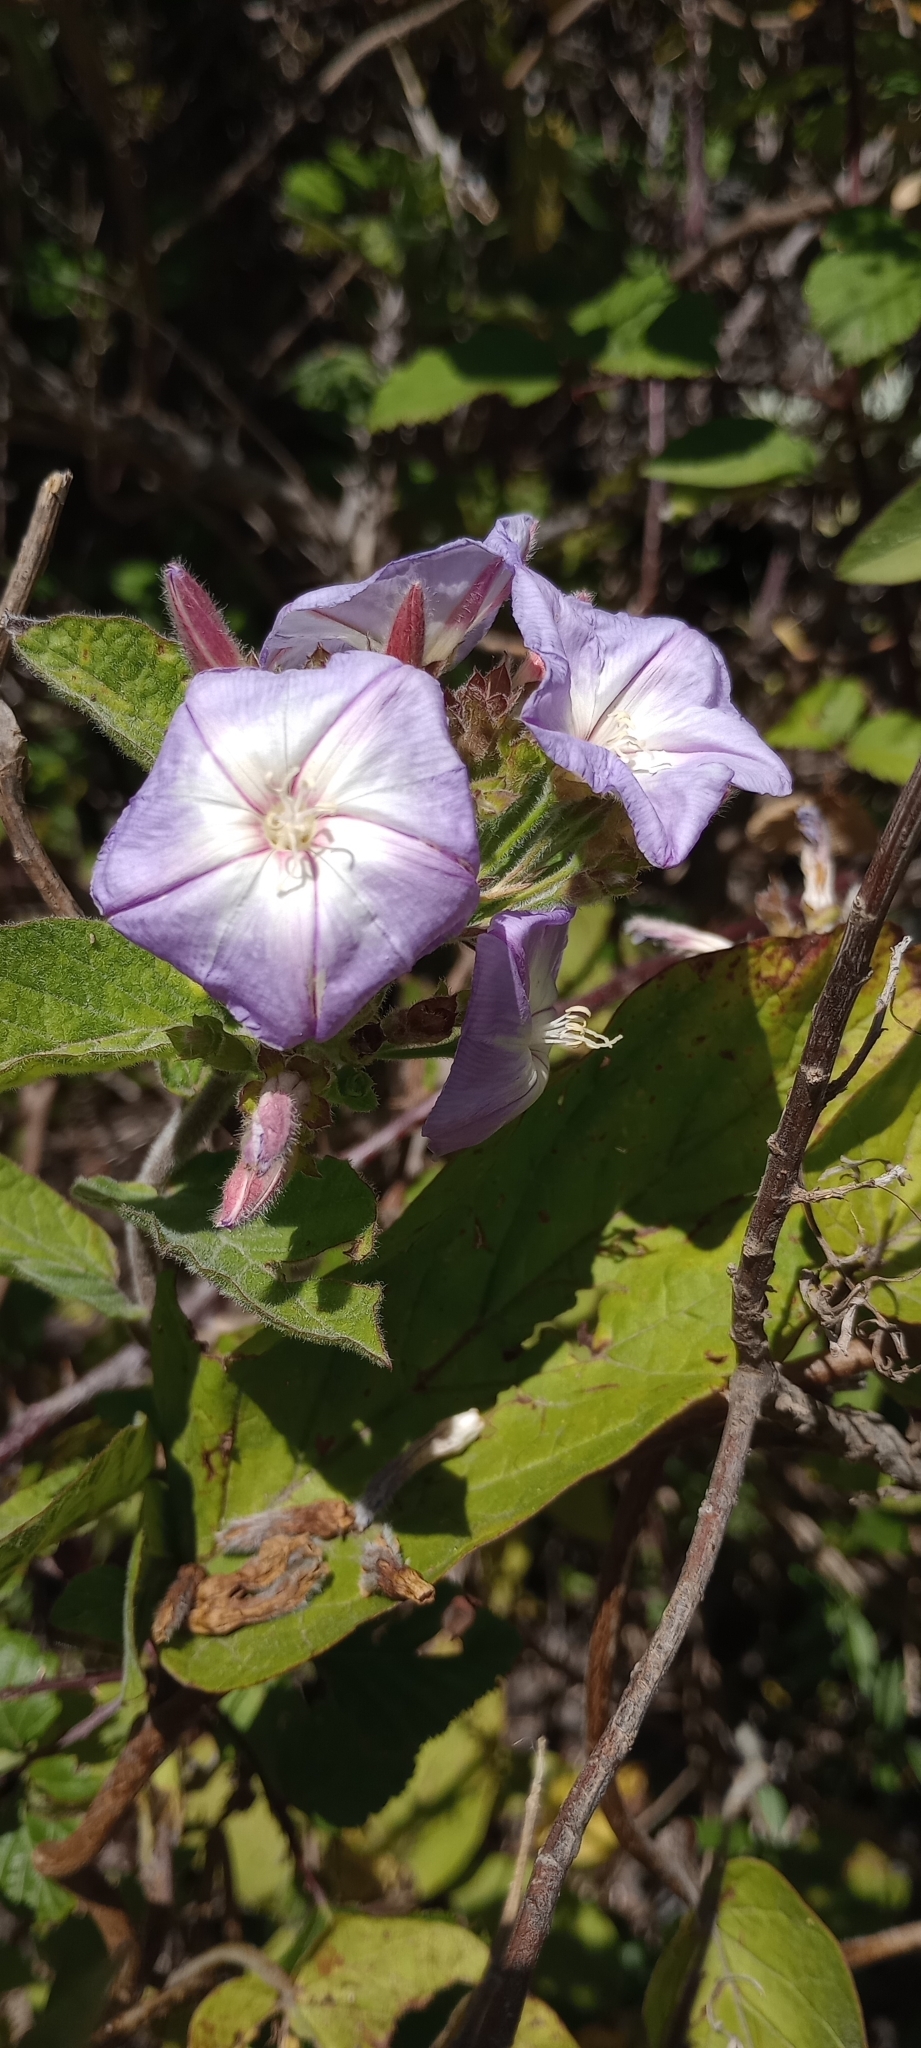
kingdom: Plantae
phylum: Tracheophyta
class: Magnoliopsida
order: Solanales
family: Convolvulaceae
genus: Convolvulus
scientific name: Convolvulus canariensis
